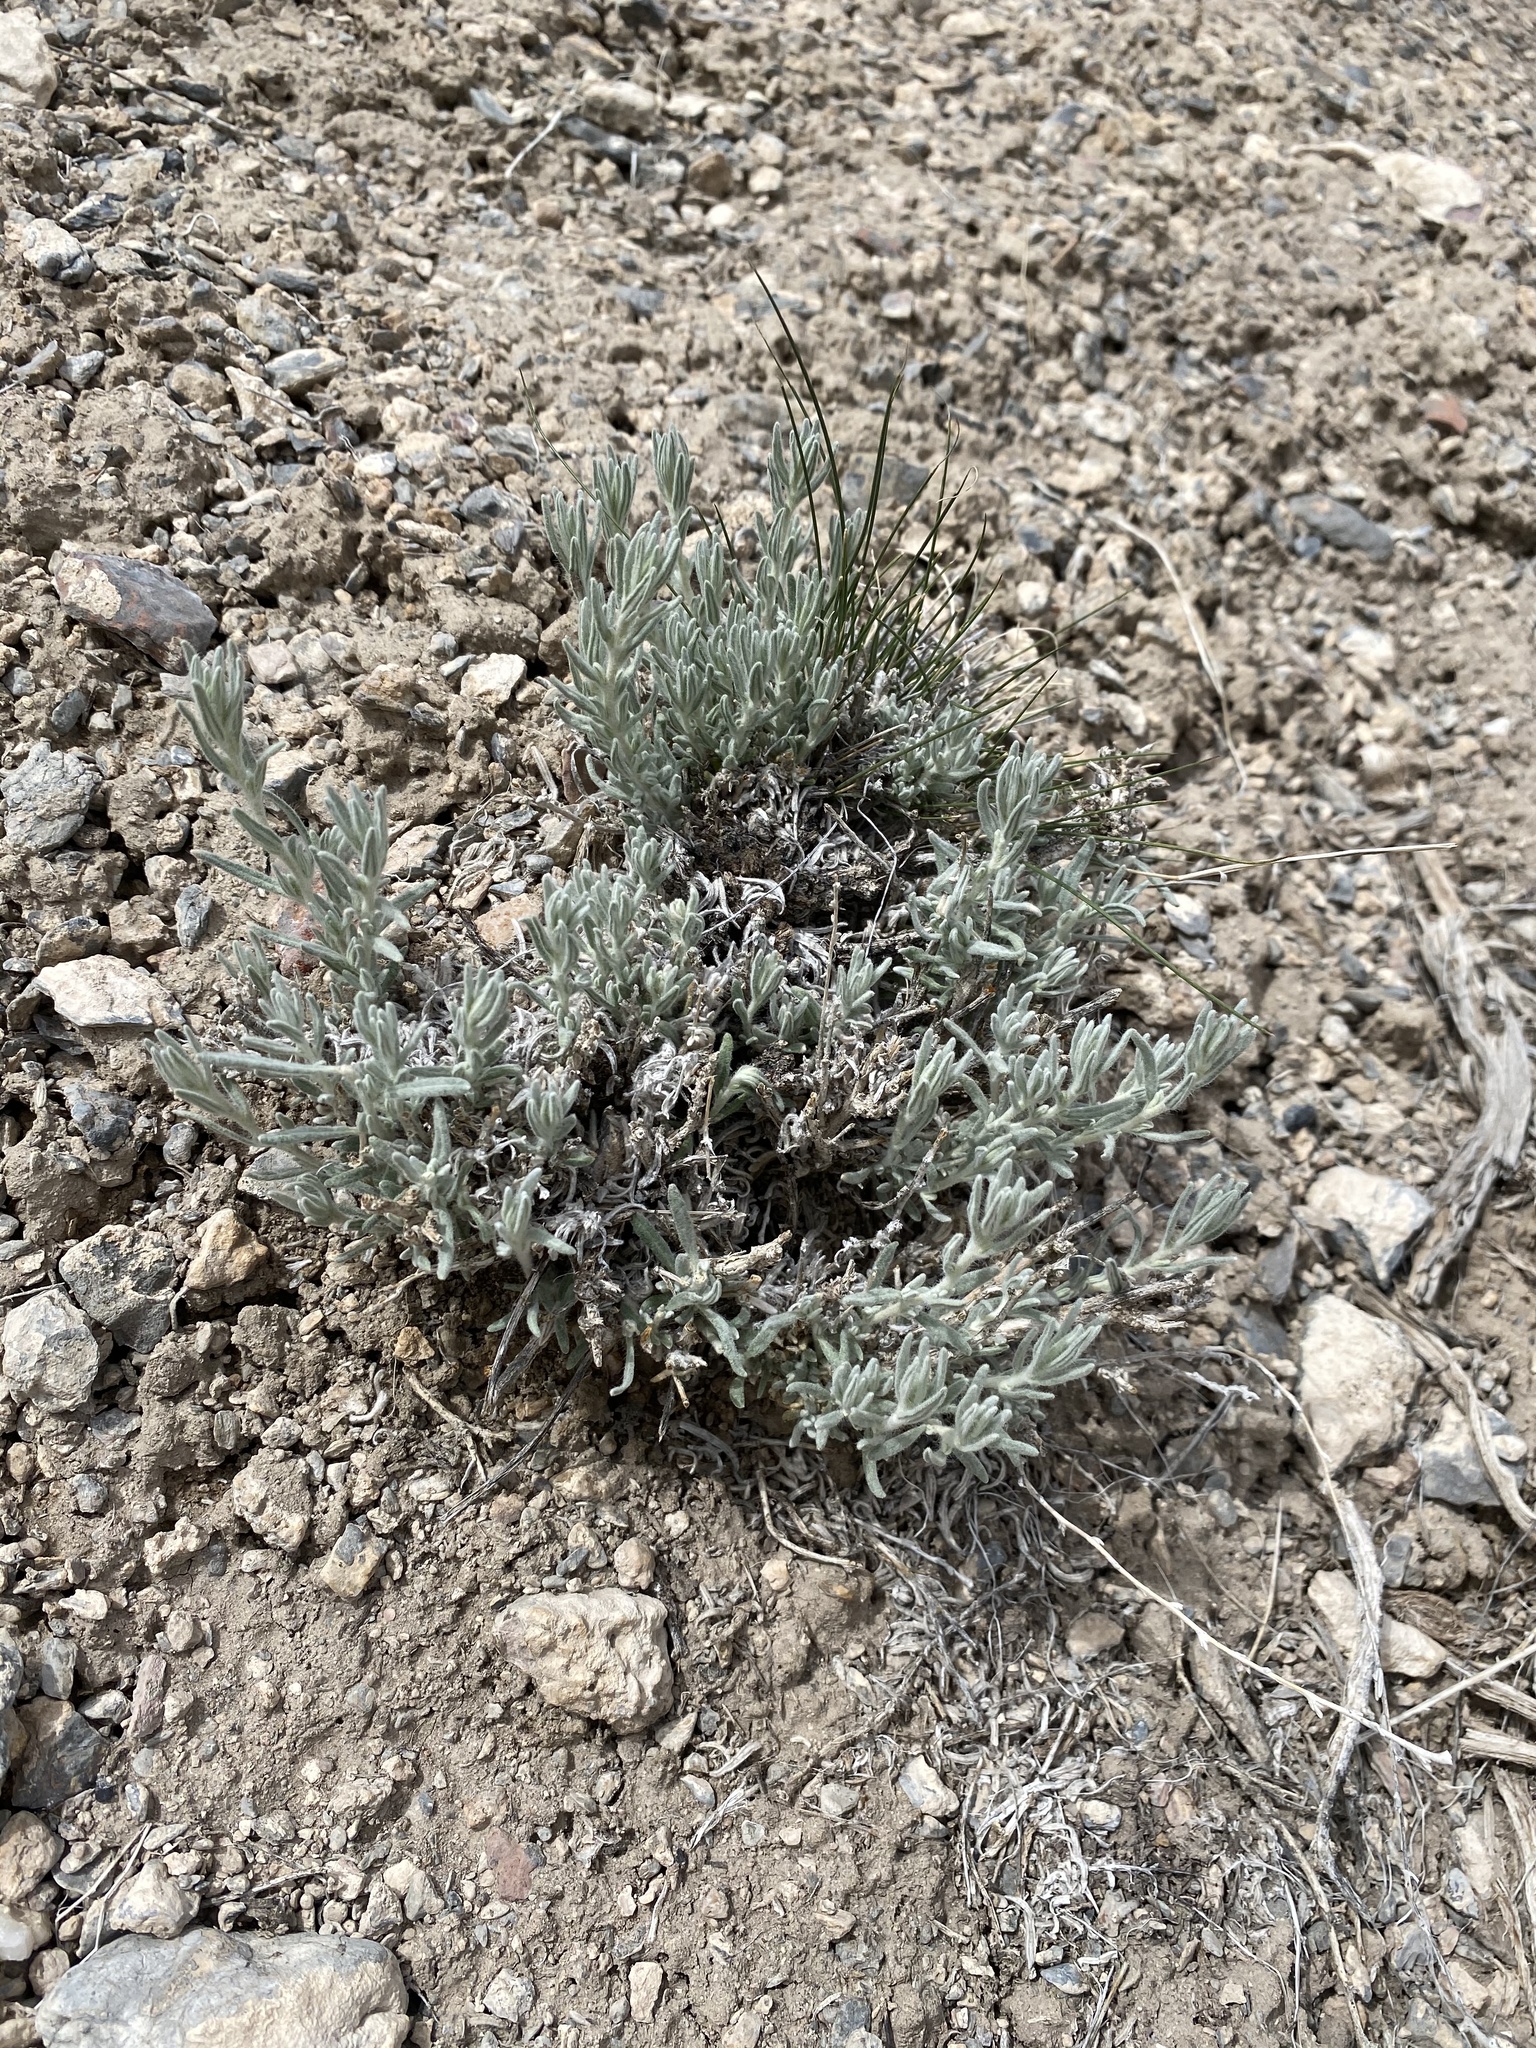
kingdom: Plantae
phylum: Tracheophyta
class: Magnoliopsida
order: Caryophyllales
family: Amaranthaceae
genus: Krascheninnikovia
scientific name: Krascheninnikovia lanata
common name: Winterfat
